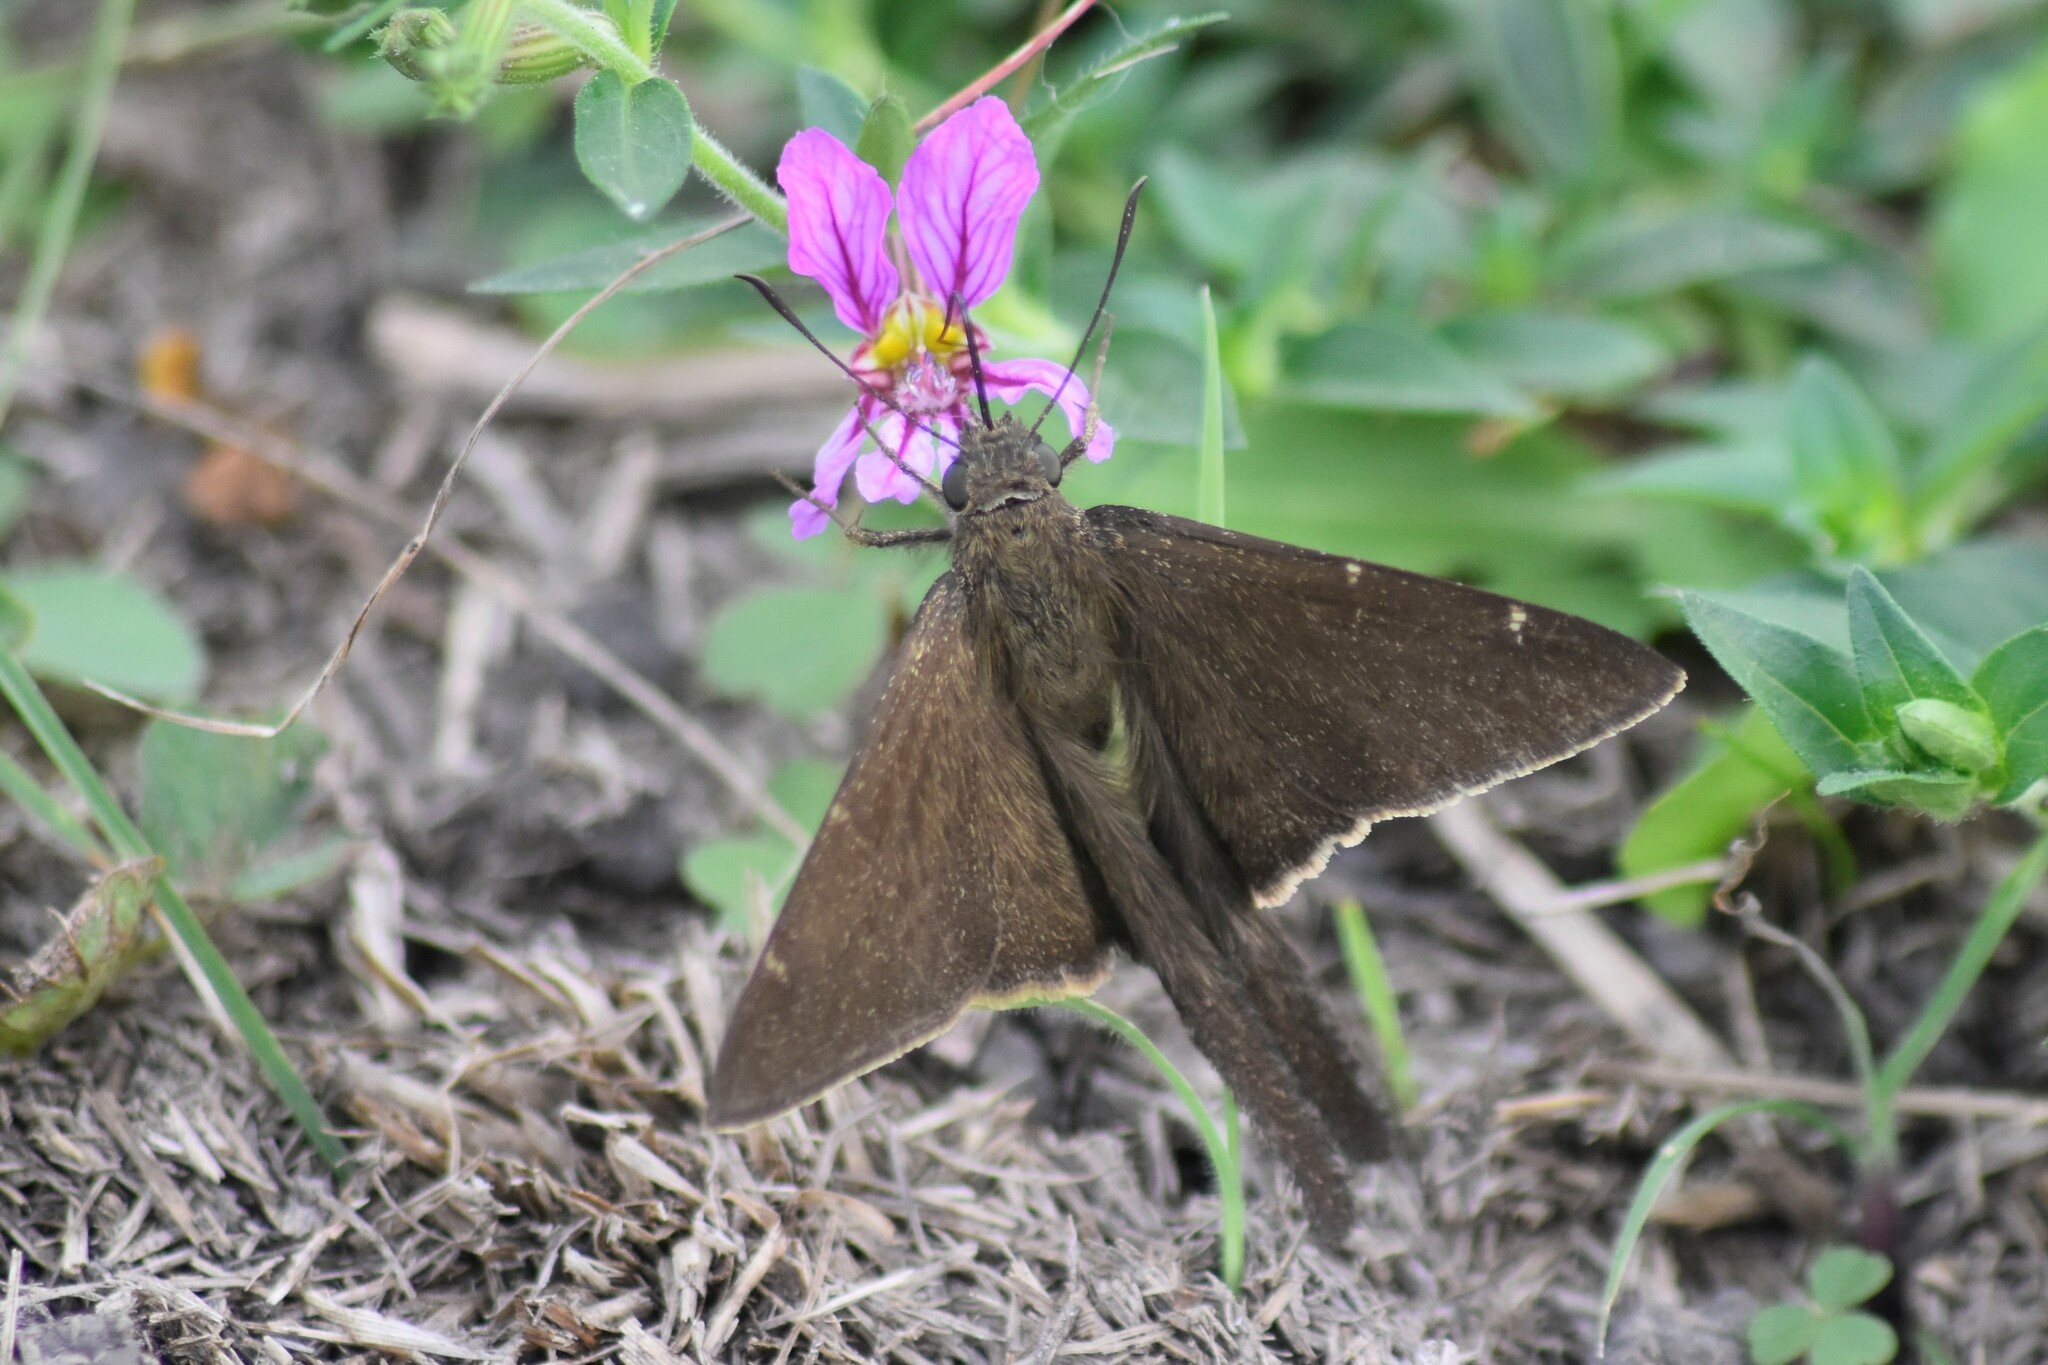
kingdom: Animalia
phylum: Arthropoda
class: Insecta
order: Lepidoptera
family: Hesperiidae
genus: Urbanus
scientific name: Urbanus procne
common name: Brown longtail
